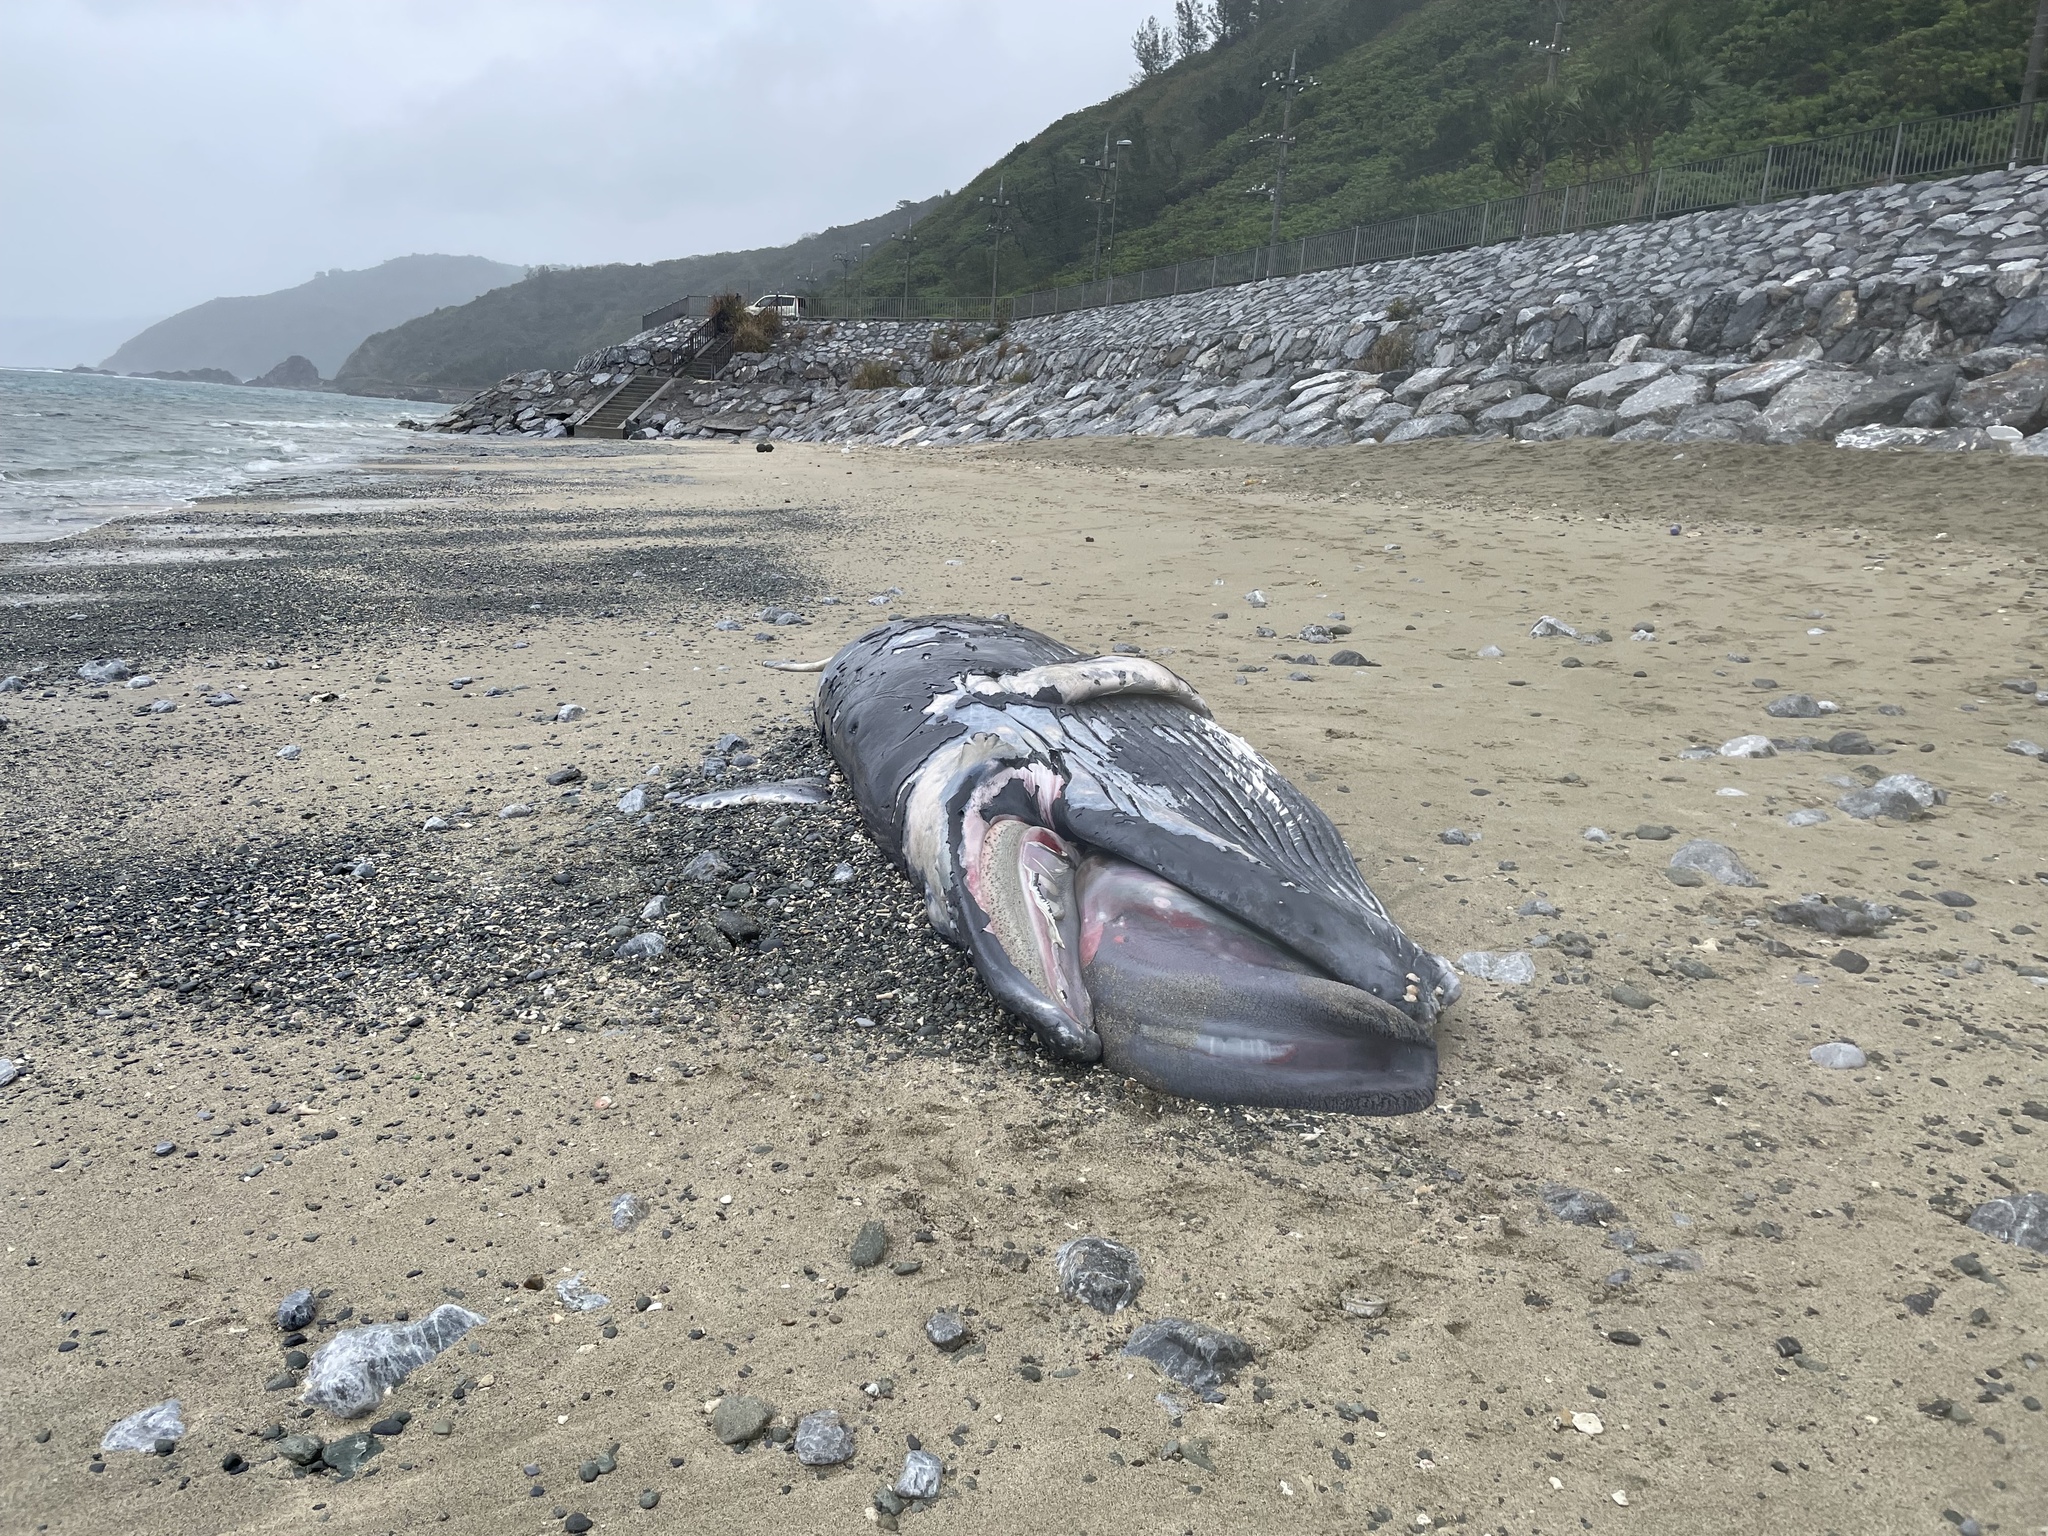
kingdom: Animalia
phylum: Chordata
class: Mammalia
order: Cetacea
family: Balaenopteridae
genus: Megaptera
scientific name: Megaptera novaeangliae
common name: Humpback whale
